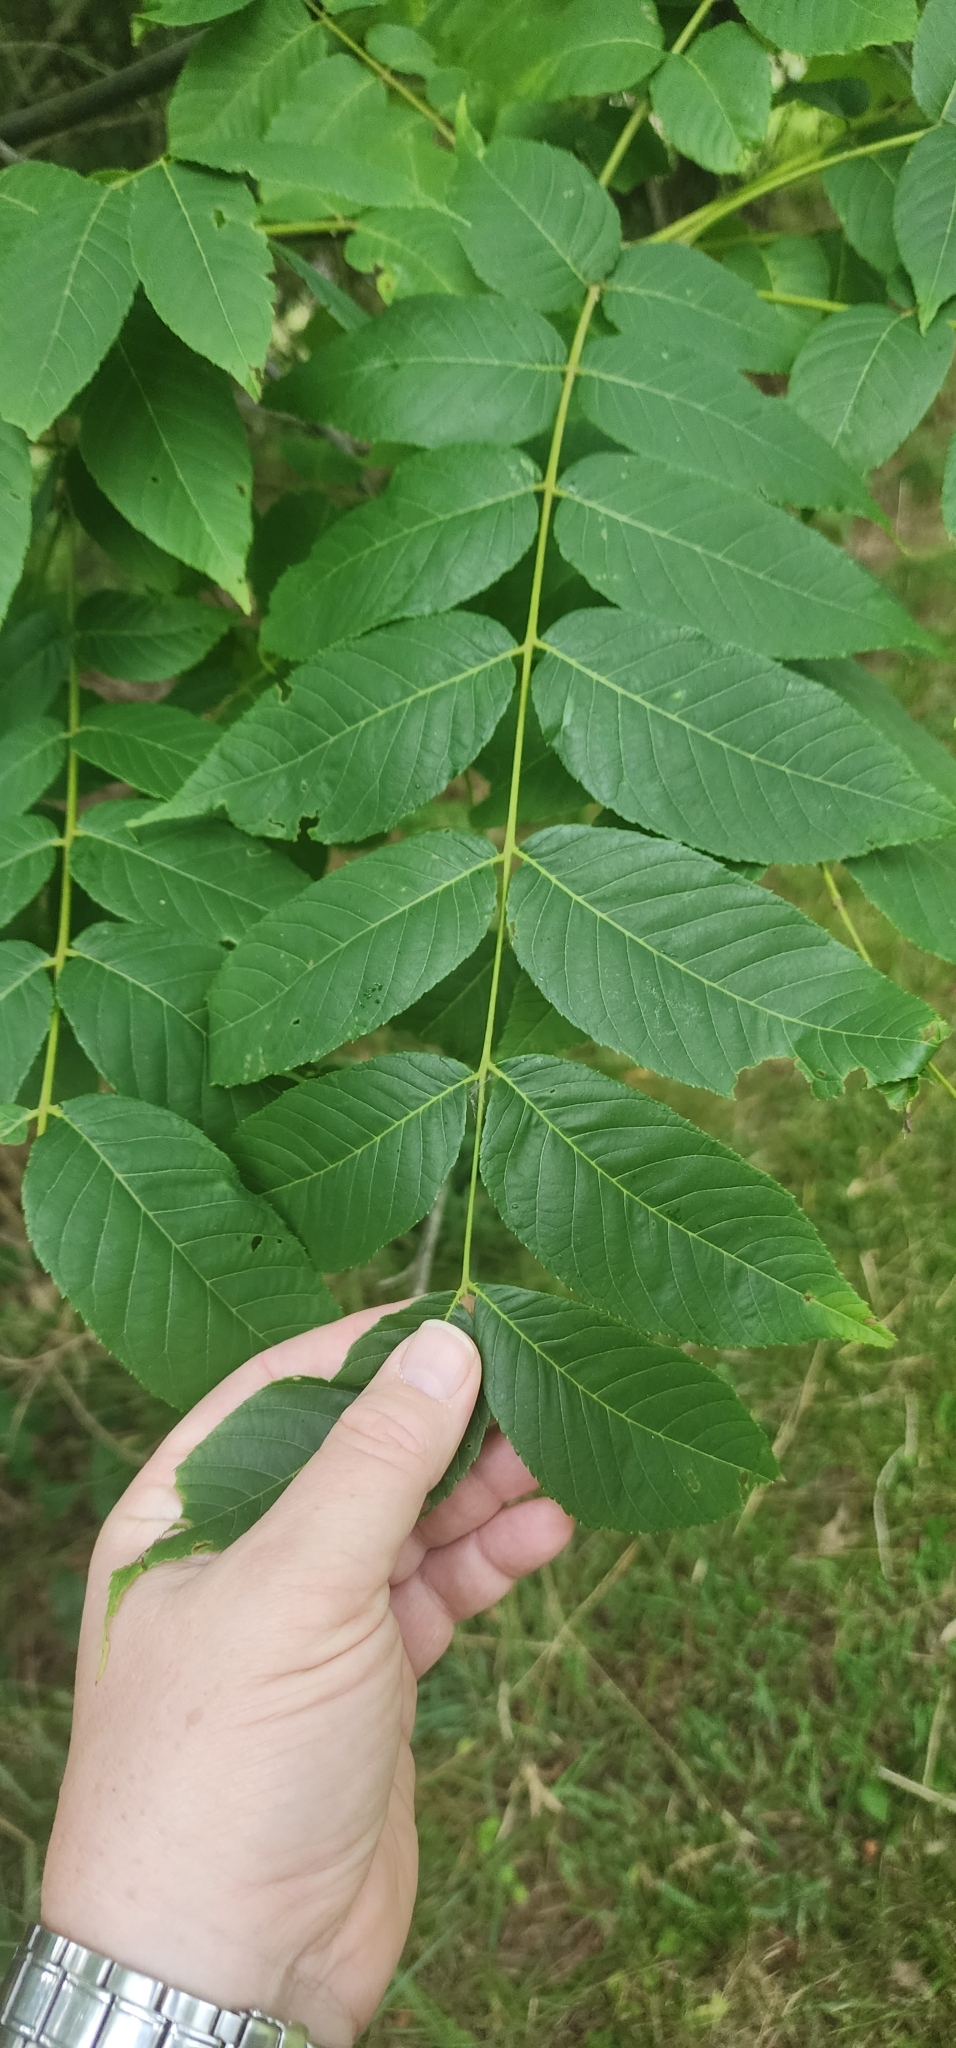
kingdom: Plantae
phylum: Tracheophyta
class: Magnoliopsida
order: Fagales
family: Juglandaceae
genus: Juglans
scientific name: Juglans nigra
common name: Black walnut
